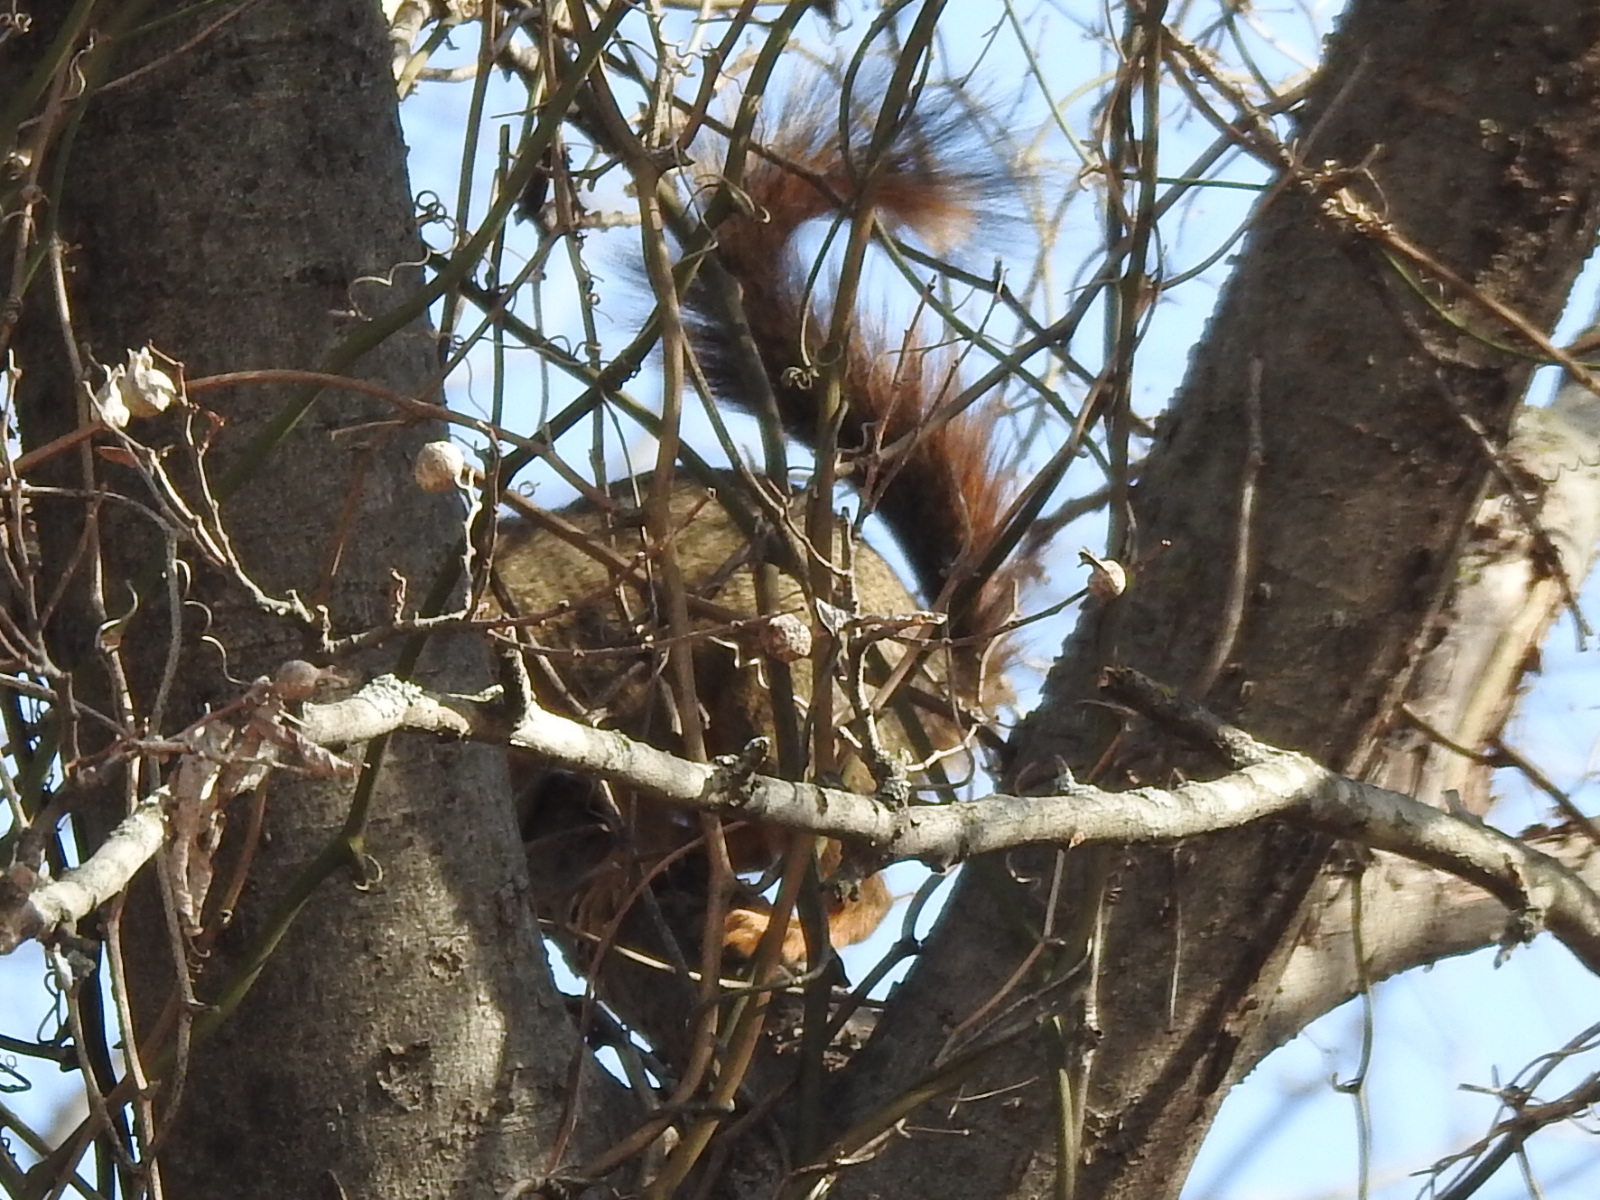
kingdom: Animalia
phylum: Chordata
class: Mammalia
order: Rodentia
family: Sciuridae
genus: Sciurus
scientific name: Sciurus niger
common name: Fox squirrel
